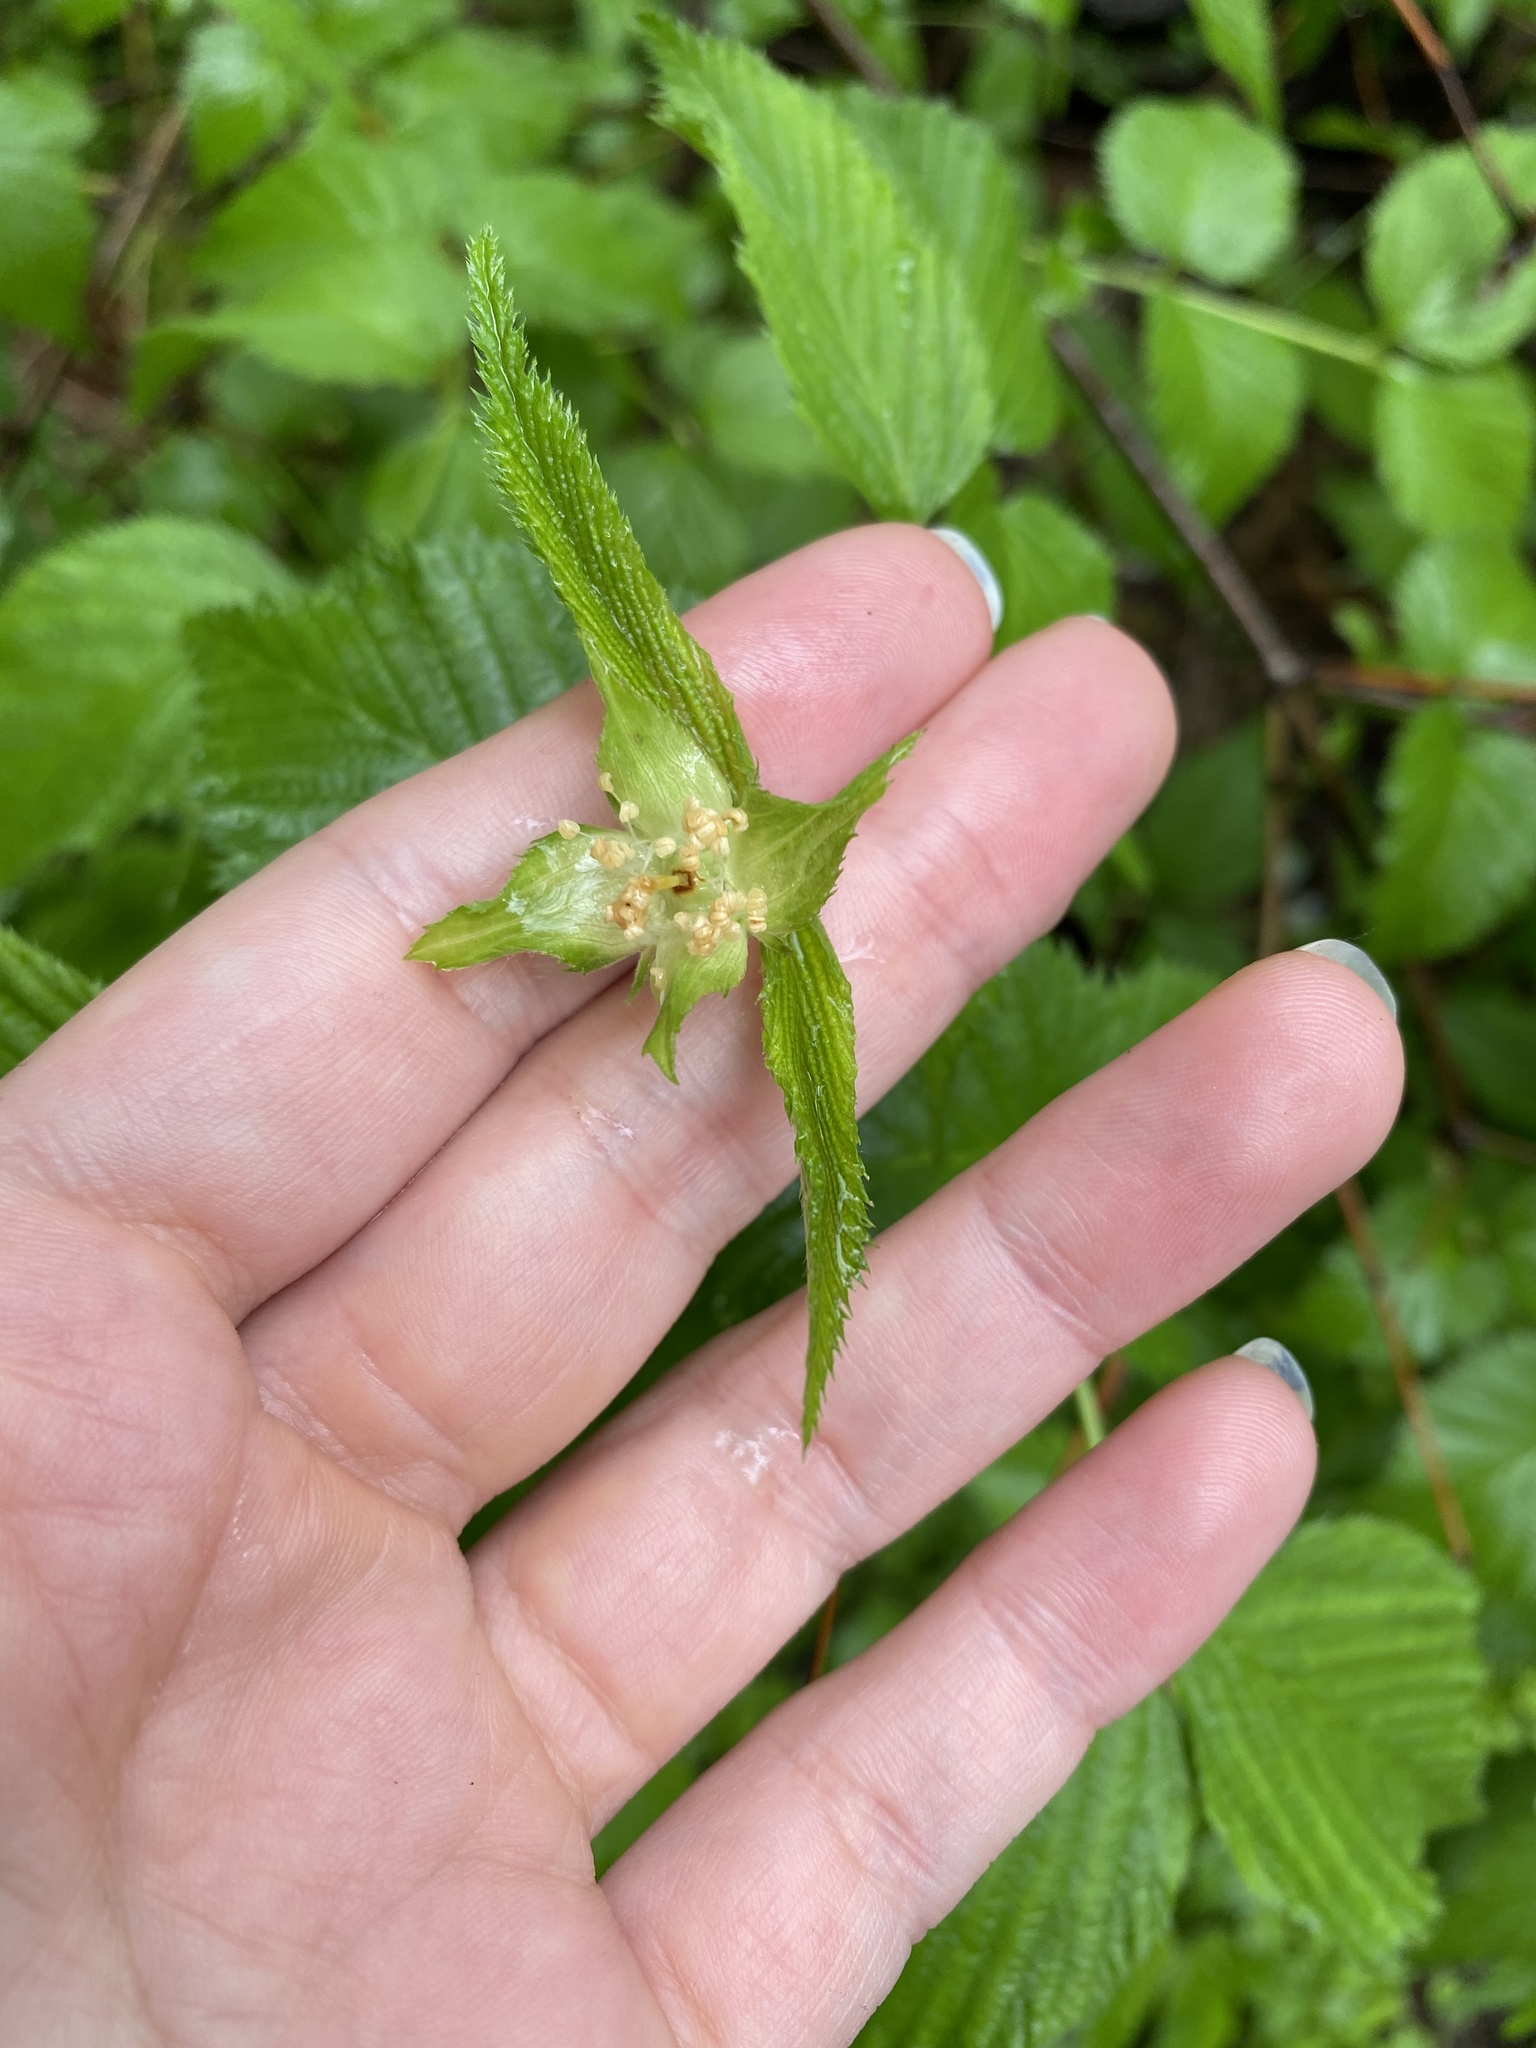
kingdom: Plantae
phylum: Tracheophyta
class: Magnoliopsida
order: Rosales
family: Rosaceae
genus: Rhodotypos
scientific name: Rhodotypos scandens
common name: Jetbead
